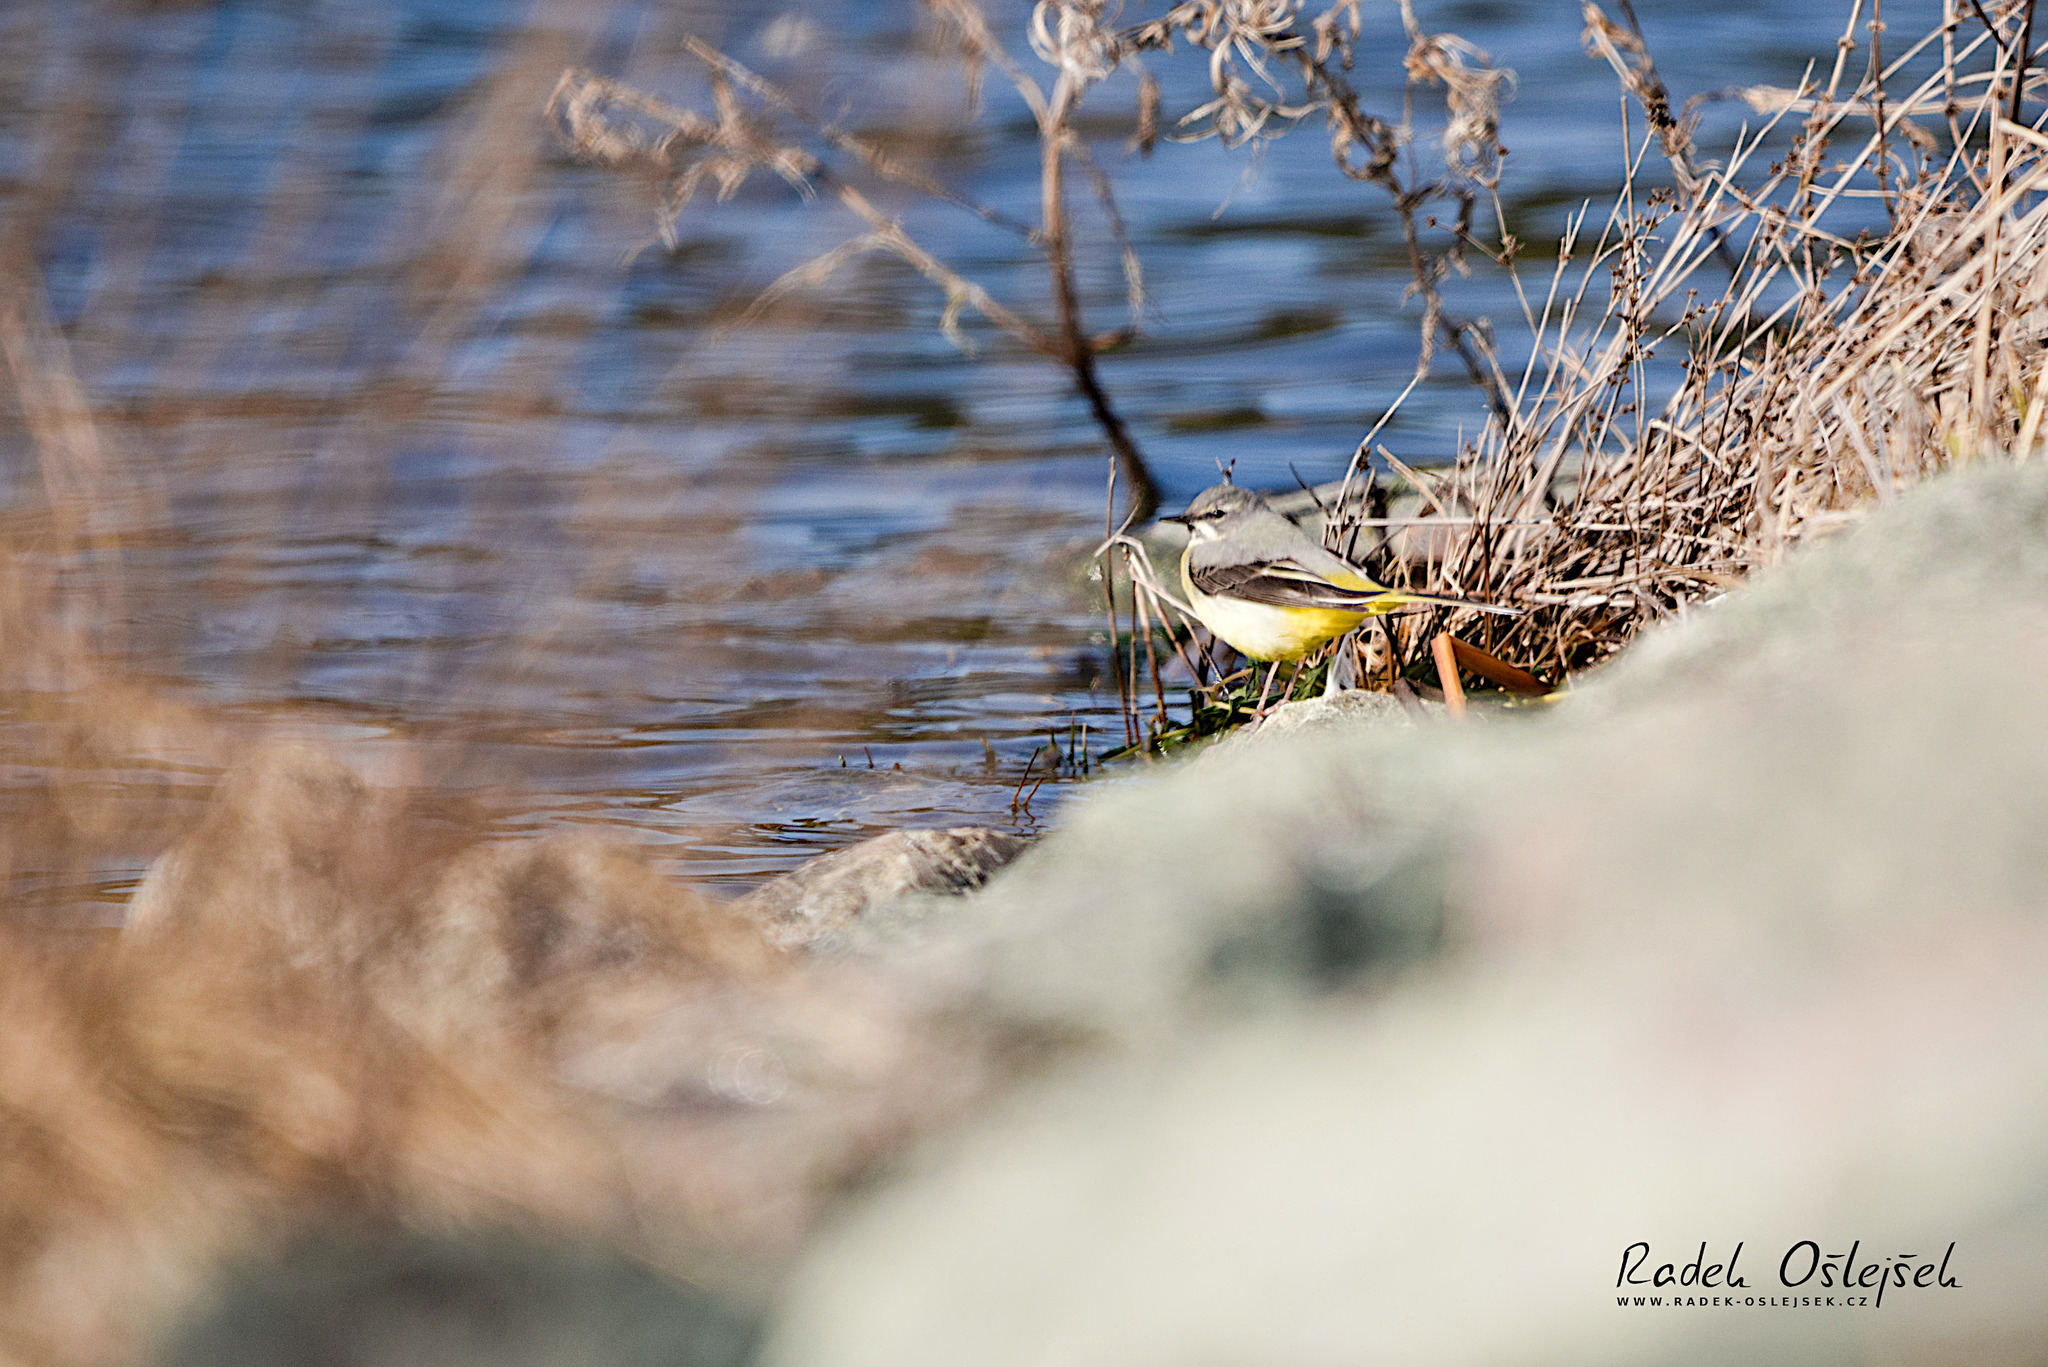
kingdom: Animalia
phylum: Chordata
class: Aves
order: Passeriformes
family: Motacillidae
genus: Motacilla
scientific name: Motacilla cinerea
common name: Grey wagtail
